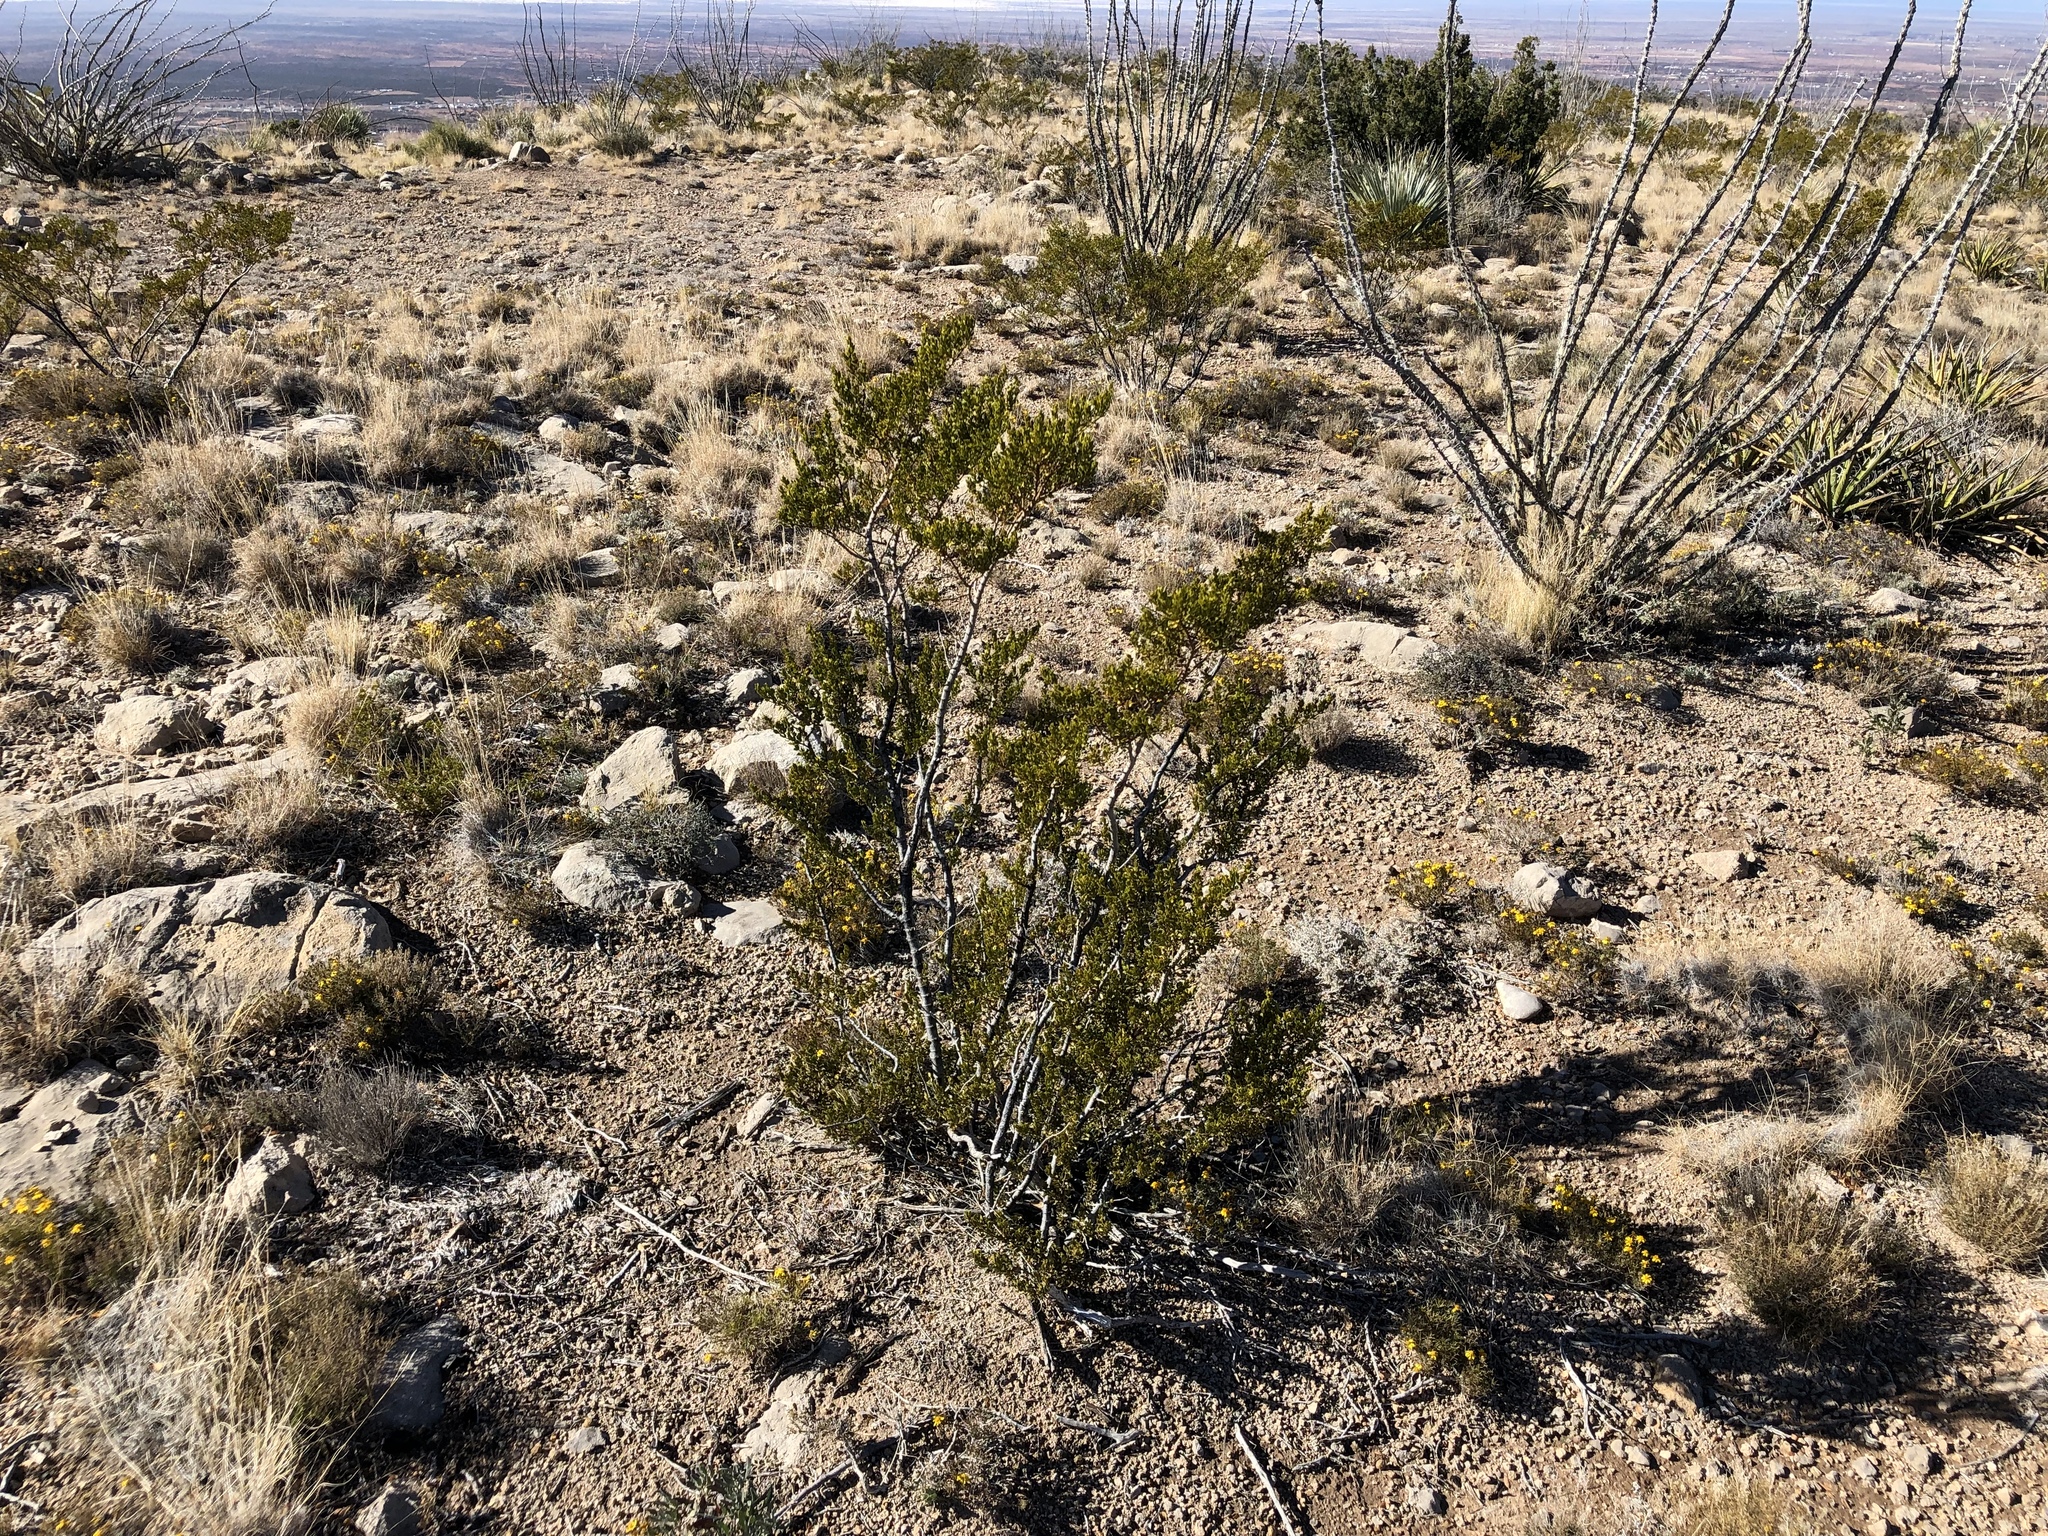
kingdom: Plantae
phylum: Tracheophyta
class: Magnoliopsida
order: Zygophyllales
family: Zygophyllaceae
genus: Larrea
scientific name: Larrea tridentata
